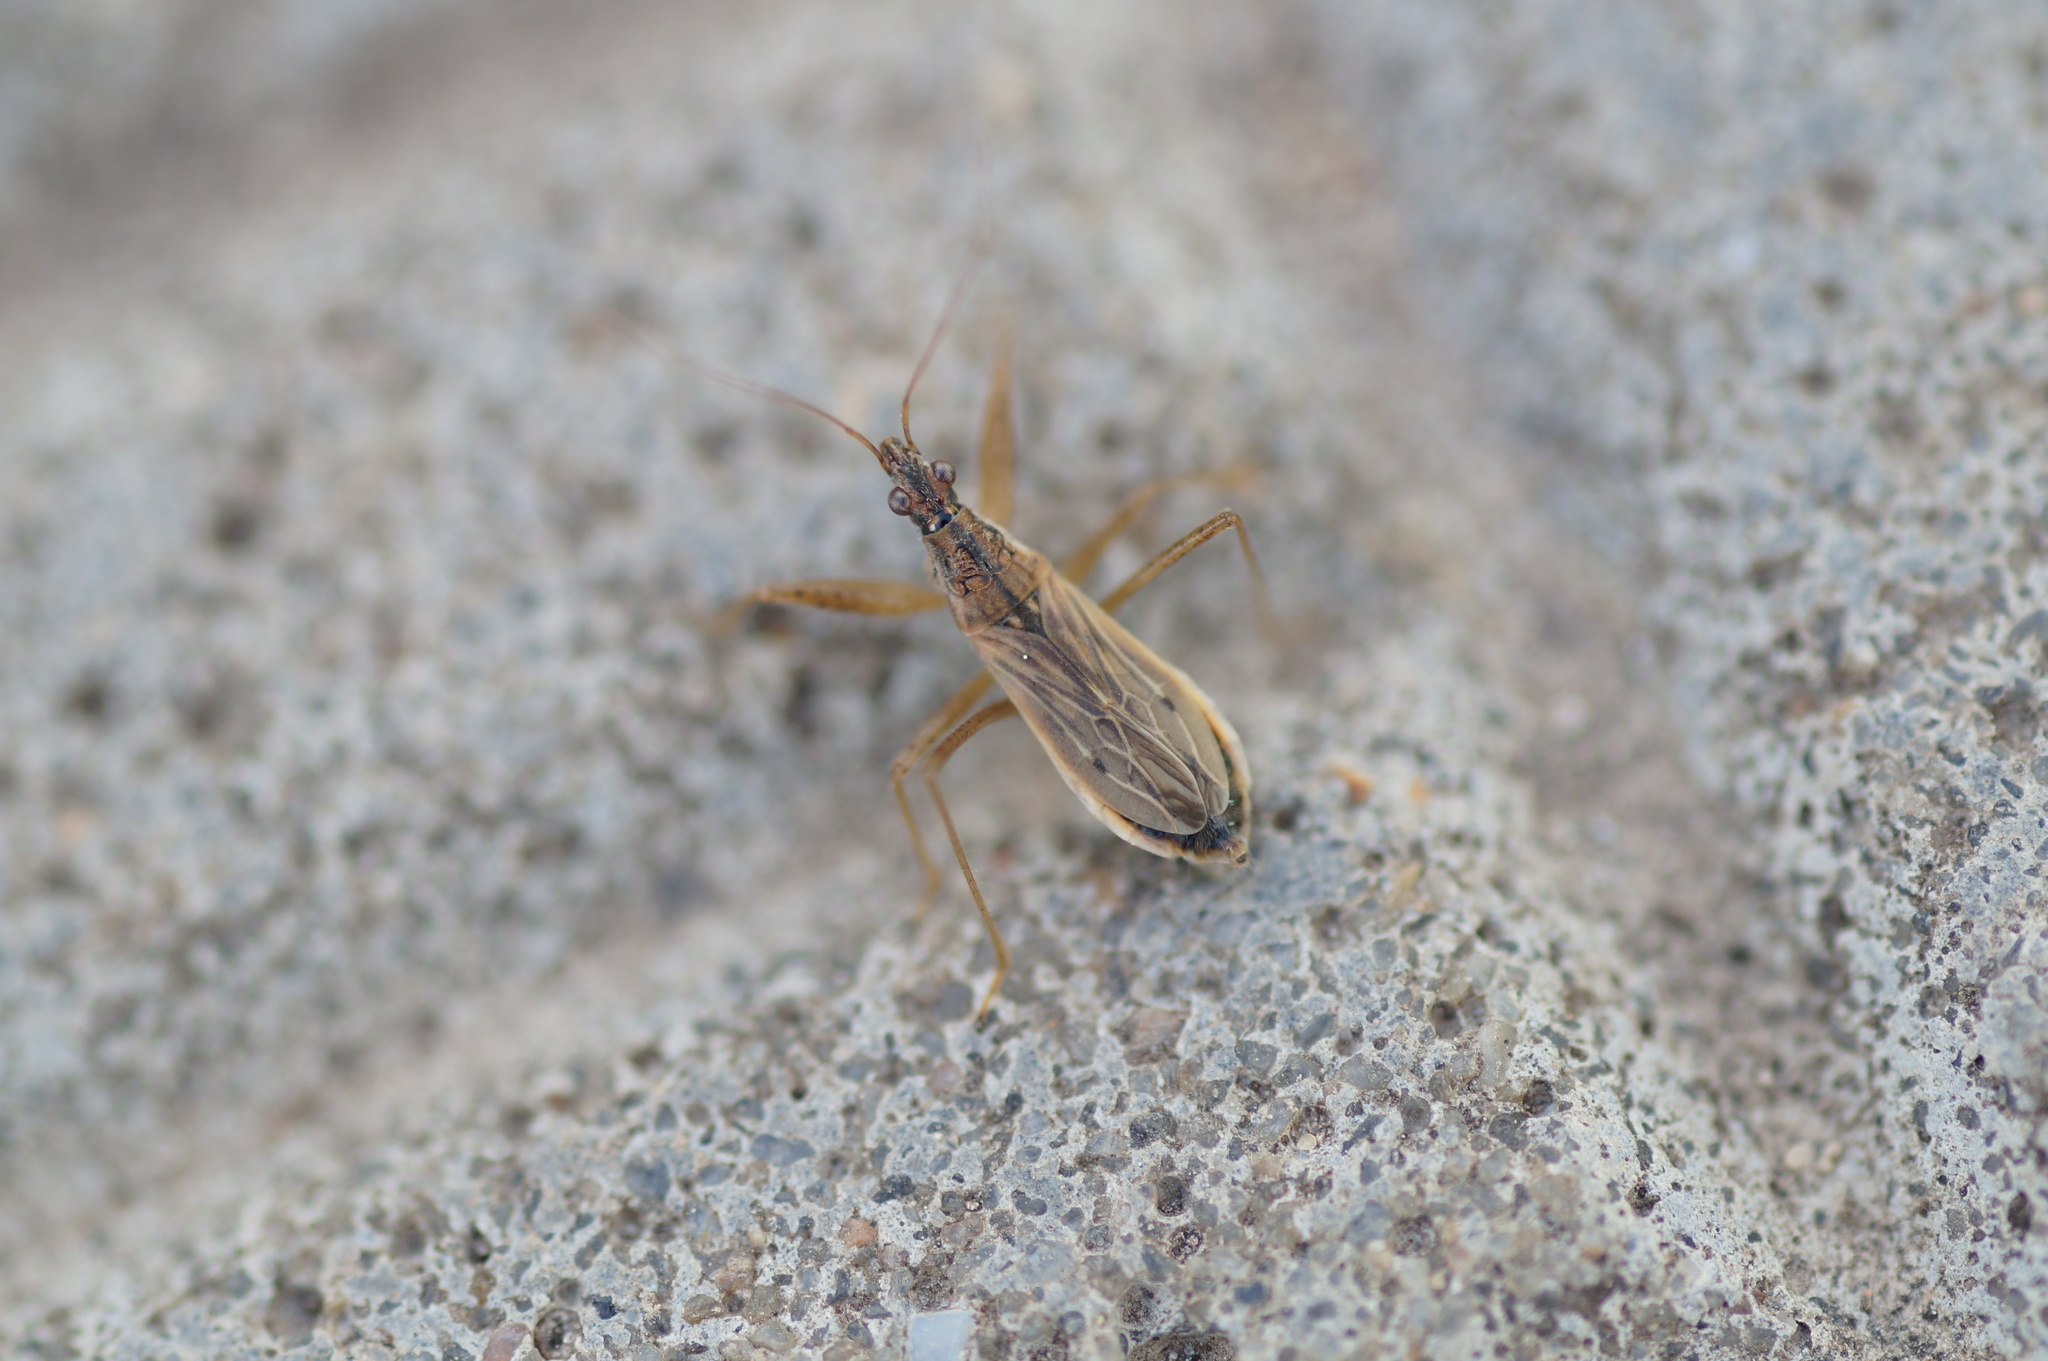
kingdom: Animalia
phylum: Arthropoda
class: Insecta
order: Hemiptera
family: Nabidae
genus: Nabis
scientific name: Nabis
